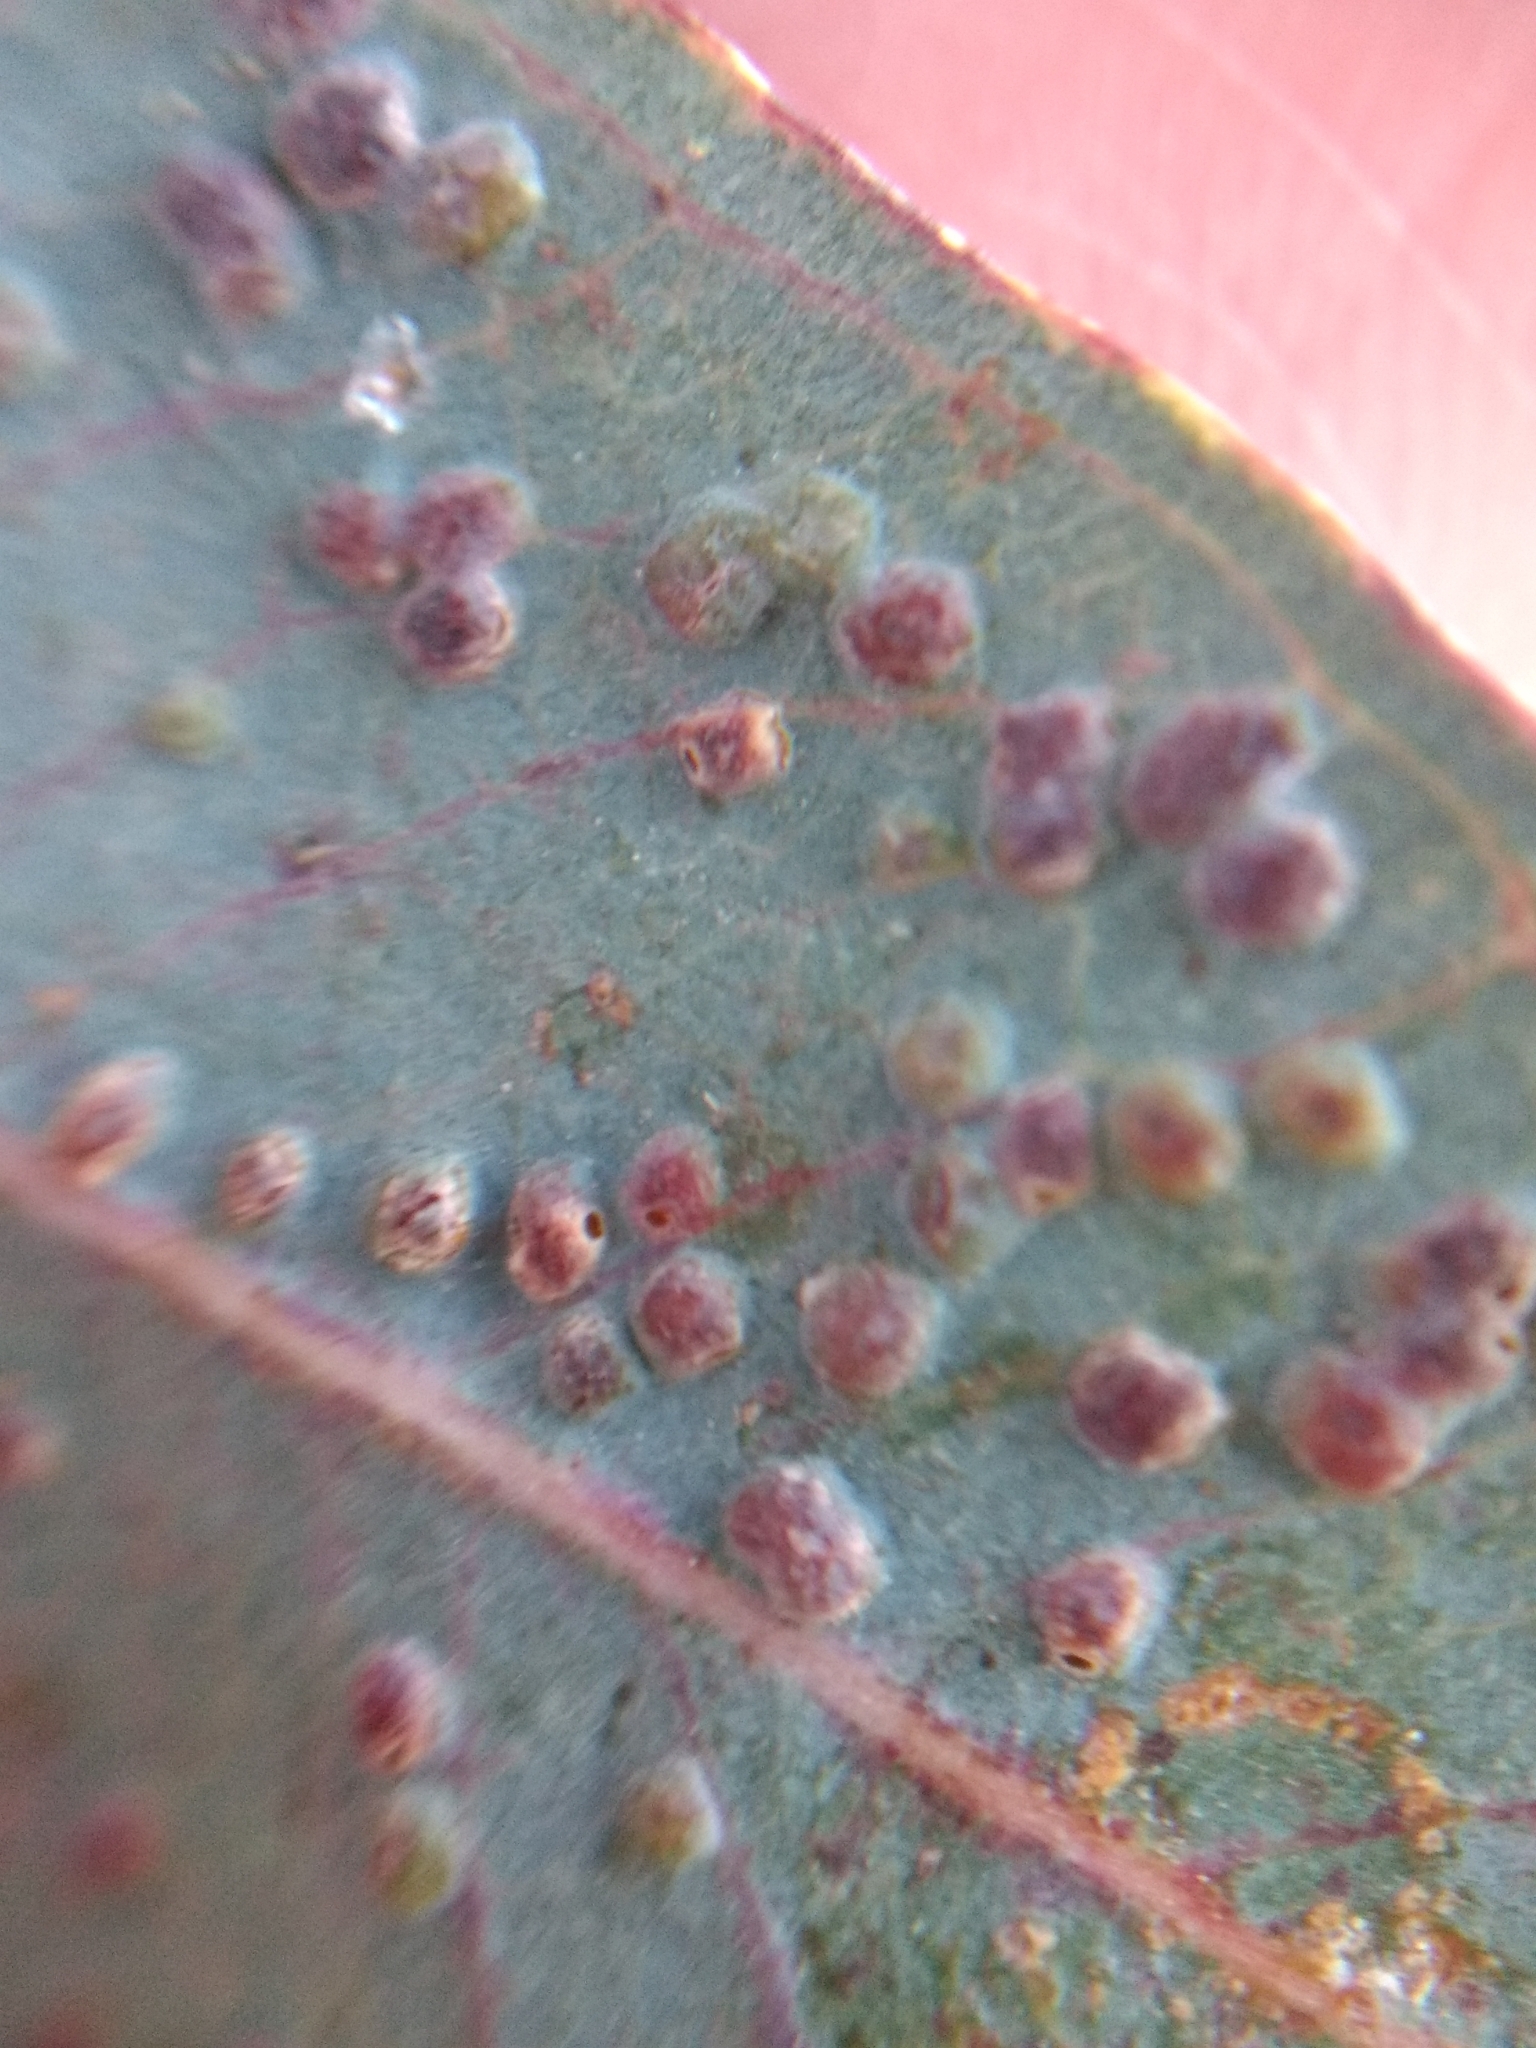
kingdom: Animalia
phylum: Arthropoda
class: Insecta
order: Hymenoptera
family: Eulophidae
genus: Ophelimus
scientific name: Ophelimus maskelli
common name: Gall wasp
